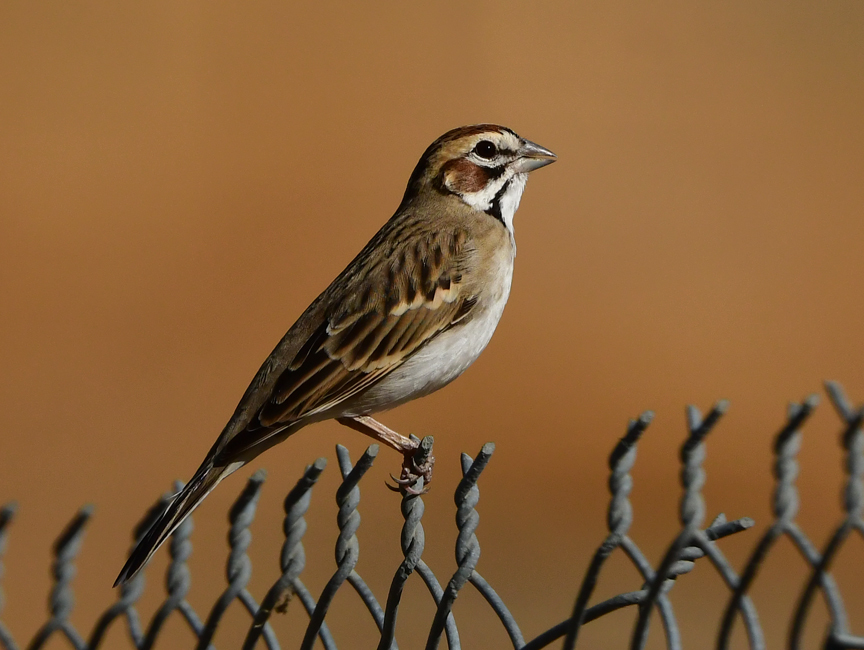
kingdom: Animalia
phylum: Chordata
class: Aves
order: Passeriformes
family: Passerellidae
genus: Chondestes
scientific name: Chondestes grammacus
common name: Lark sparrow
